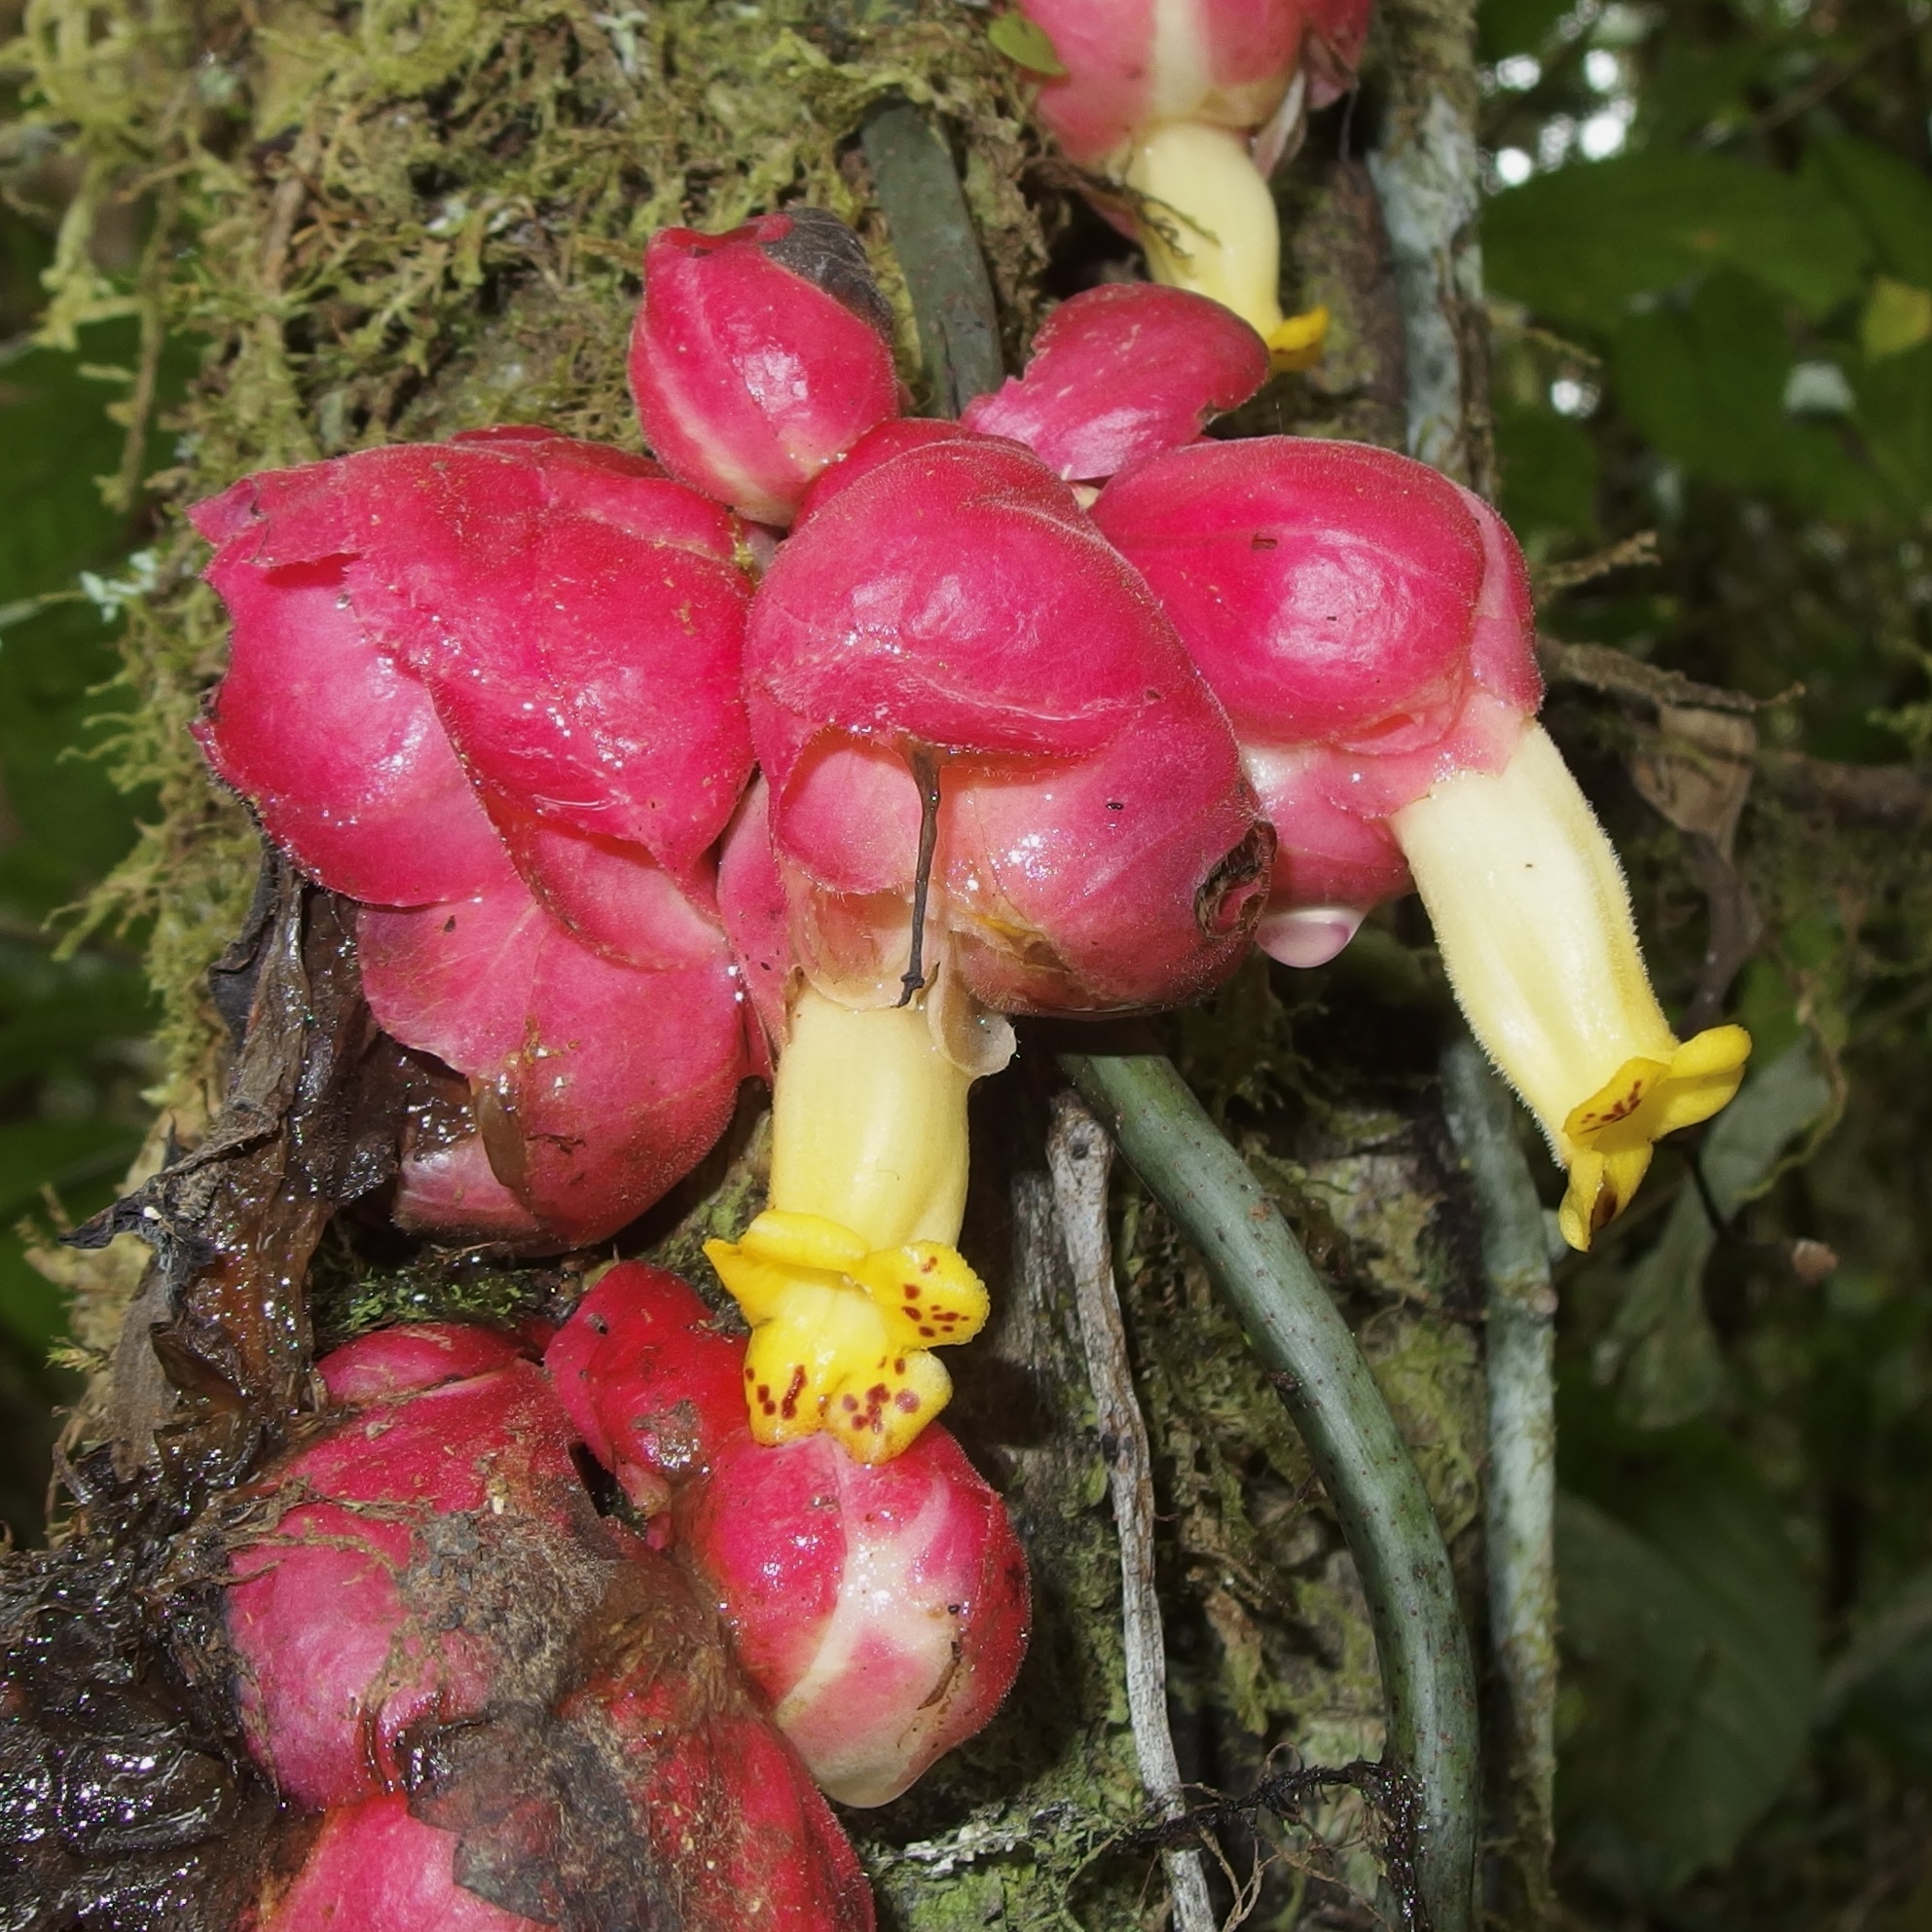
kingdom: Plantae
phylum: Tracheophyta
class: Magnoliopsida
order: Lamiales
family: Gesneriaceae
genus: Drymonia
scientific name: Drymonia coccinea
